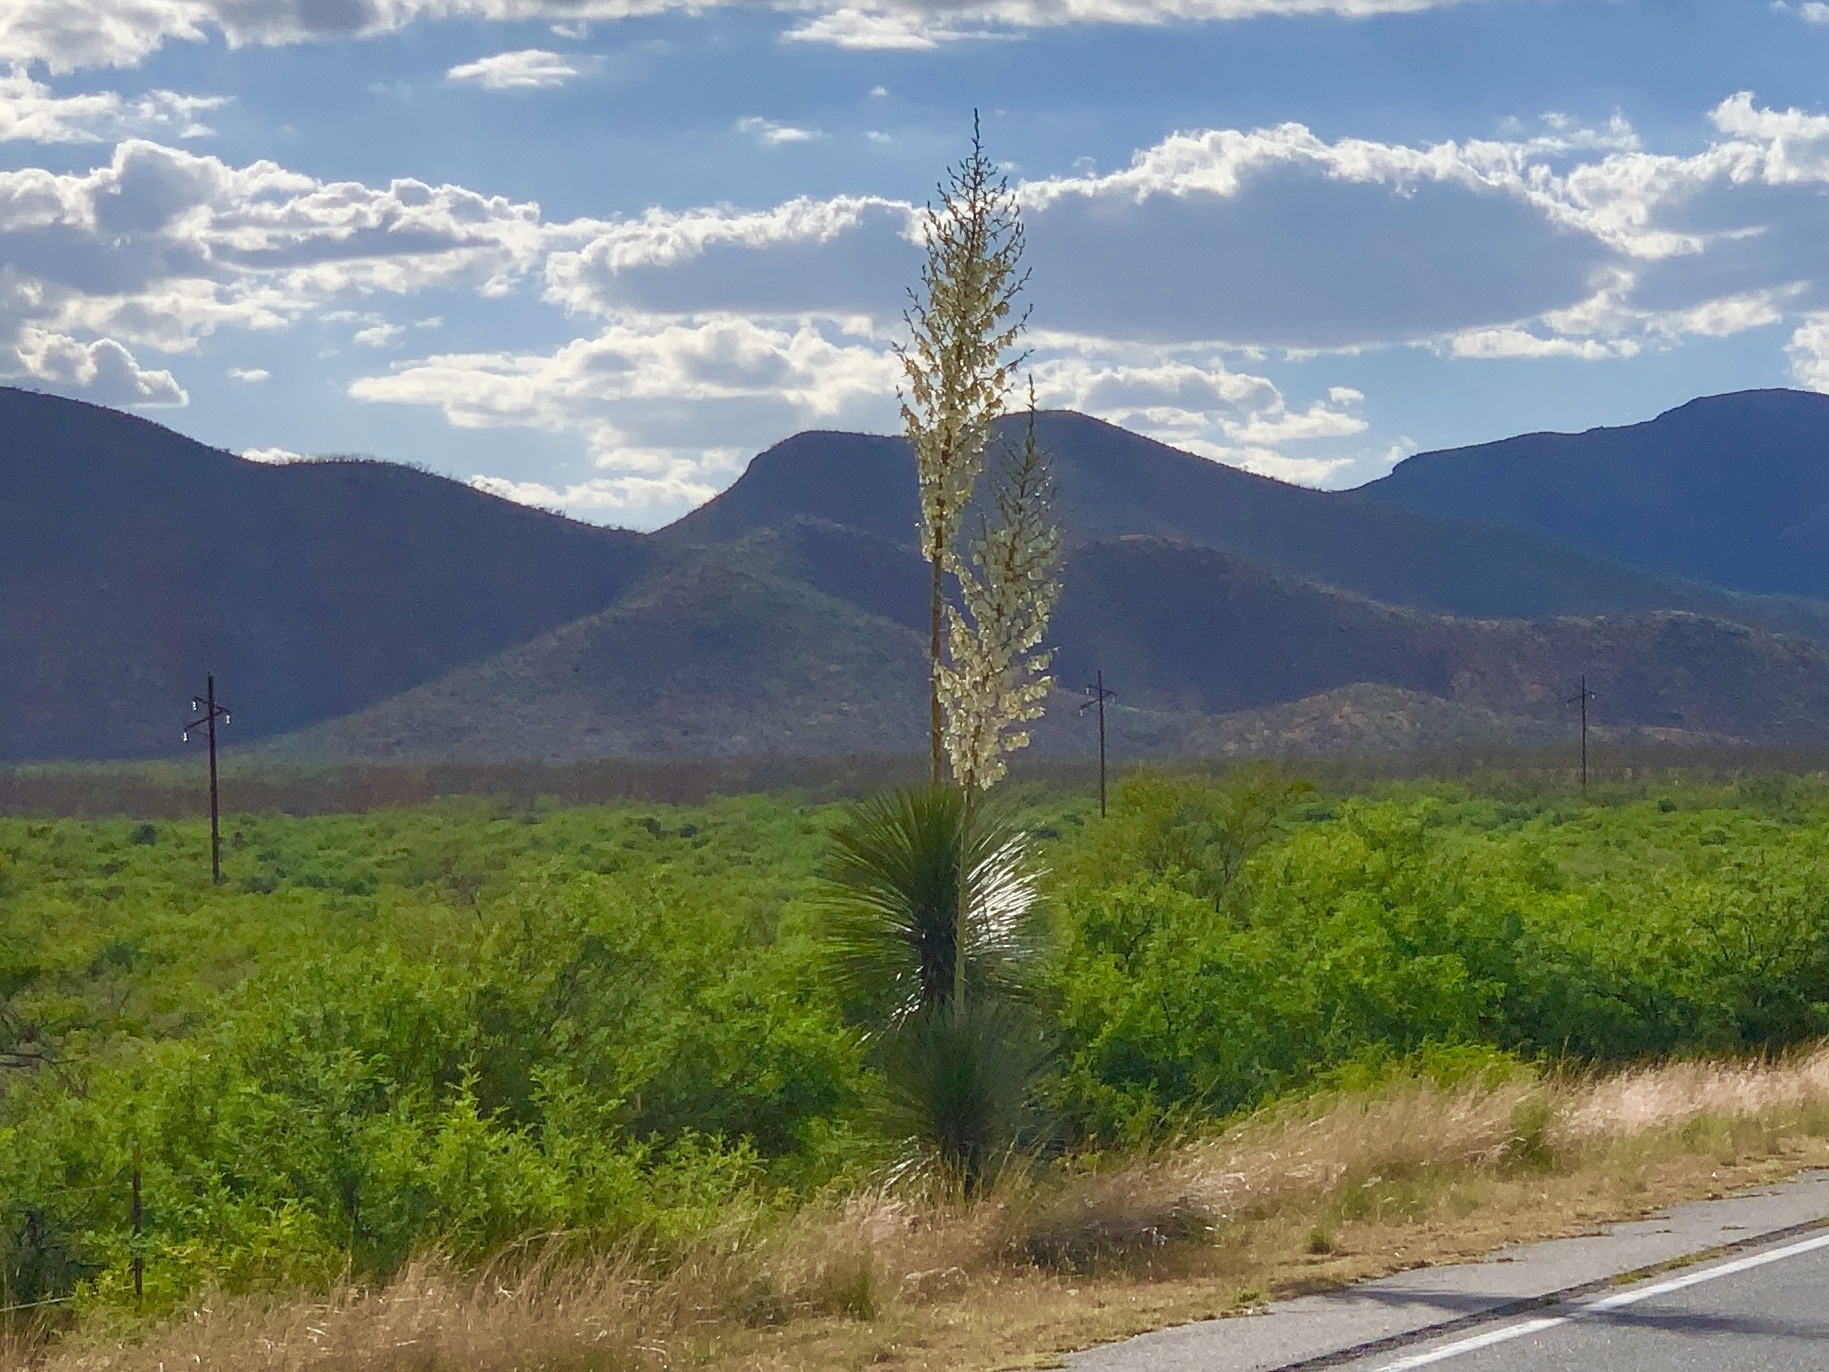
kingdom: Plantae
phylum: Tracheophyta
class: Liliopsida
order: Asparagales
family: Asparagaceae
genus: Yucca
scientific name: Yucca elata
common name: Palmella
